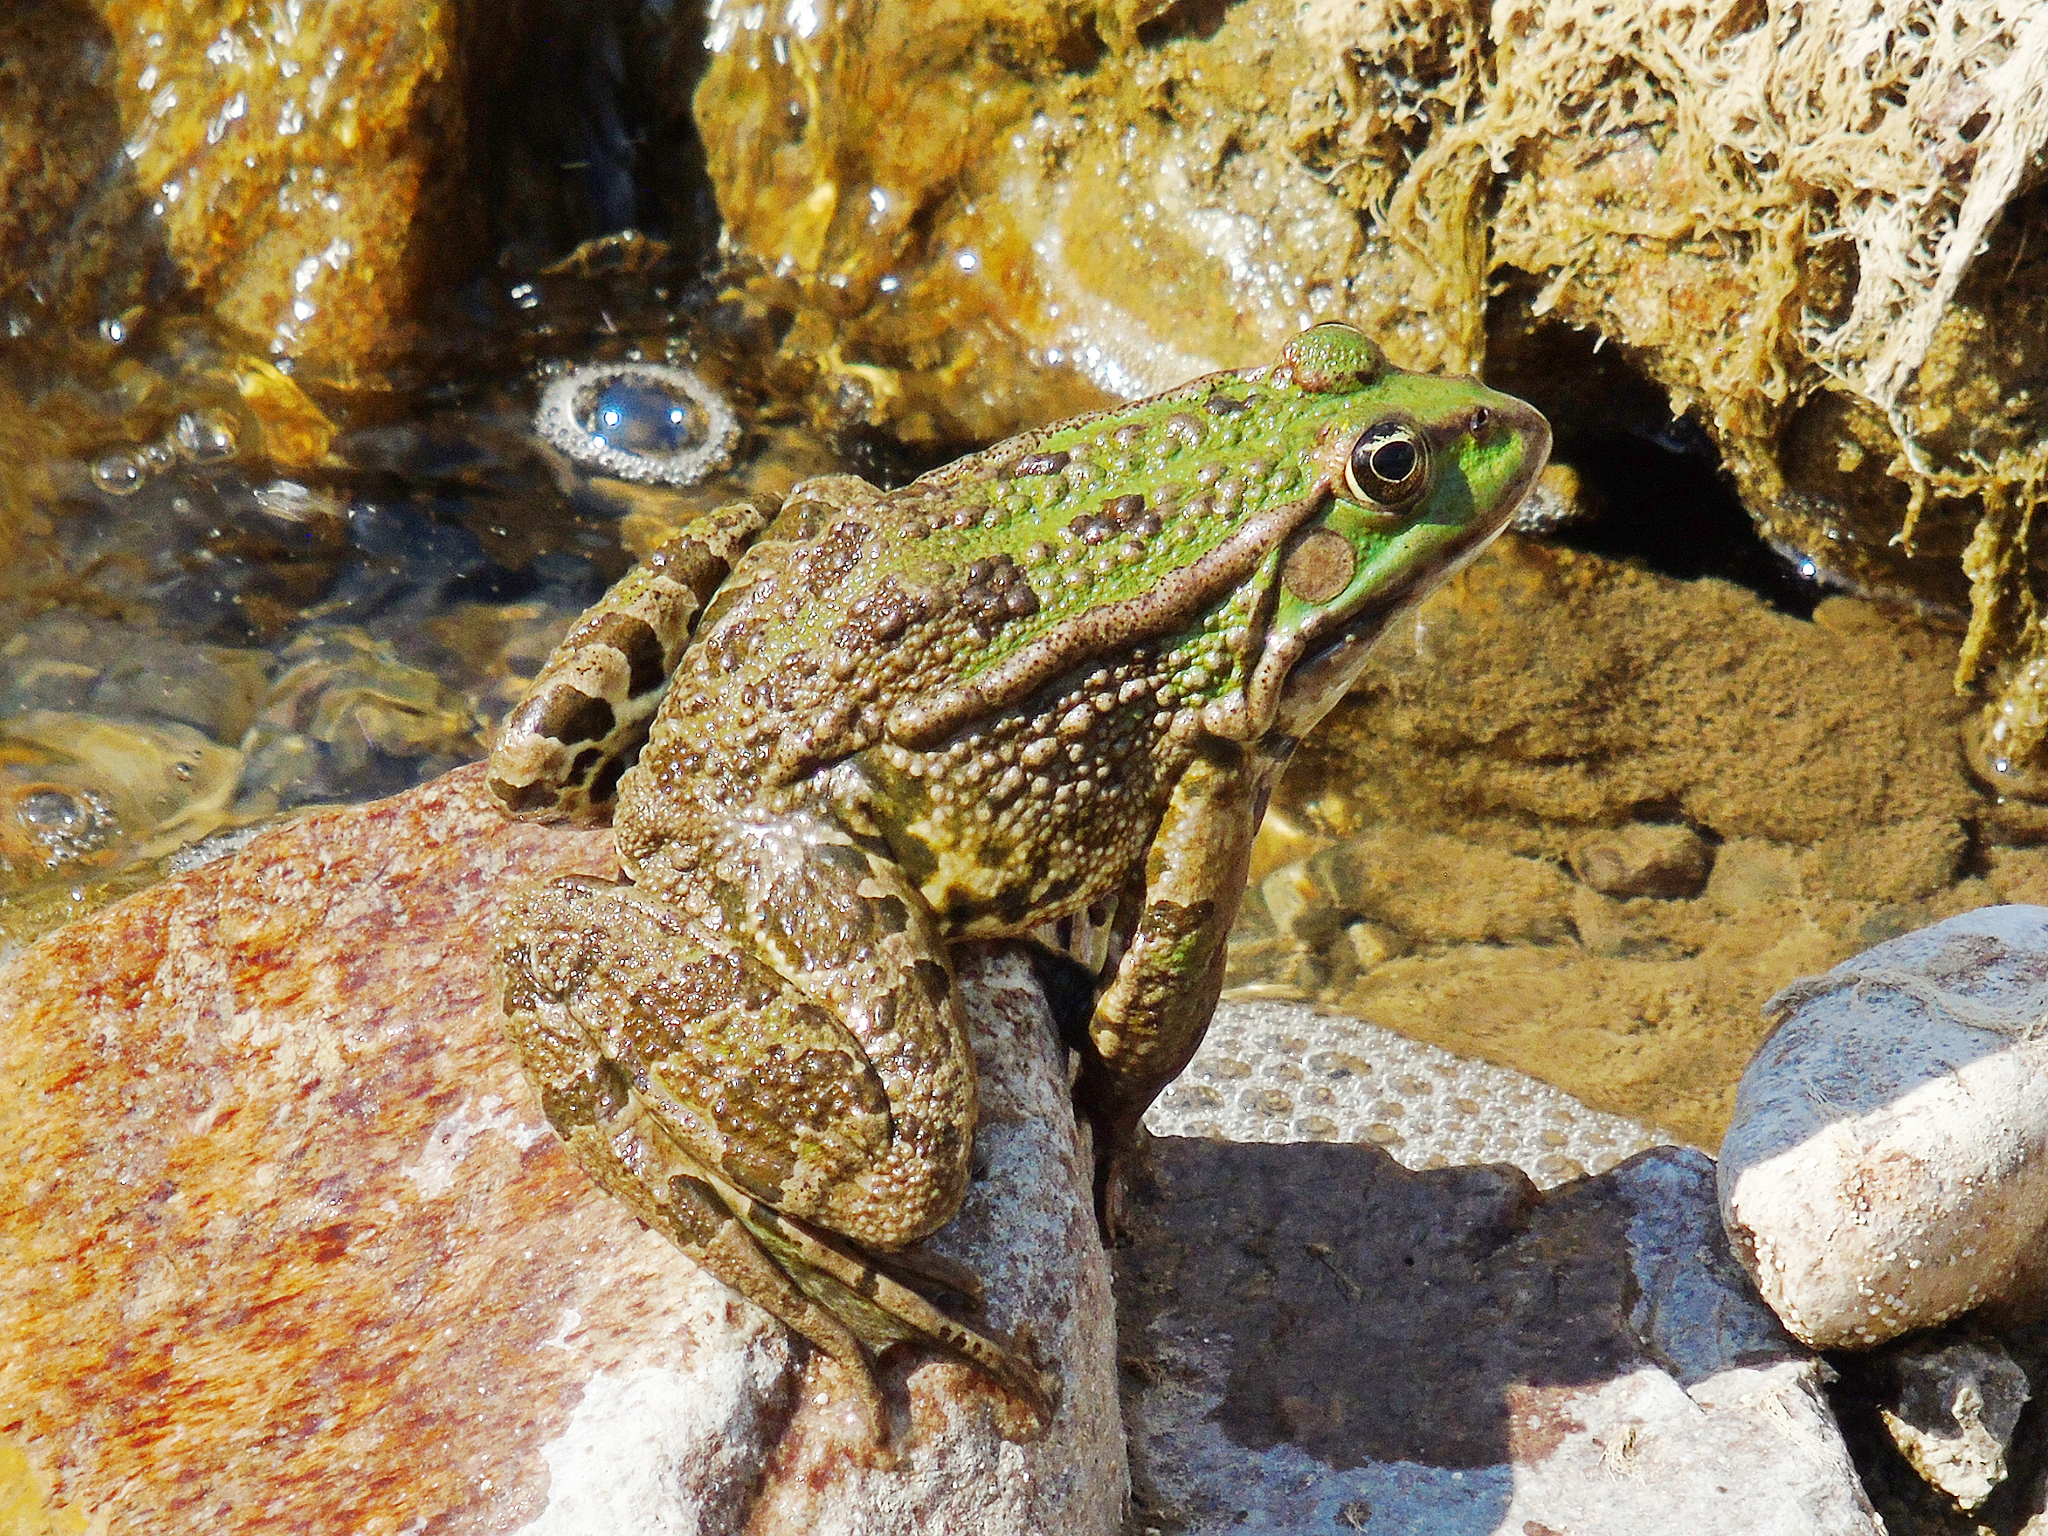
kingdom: Animalia
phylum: Chordata
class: Amphibia
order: Anura
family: Ranidae
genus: Pelophylax
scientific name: Pelophylax ridibundus
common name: Marsh frog
